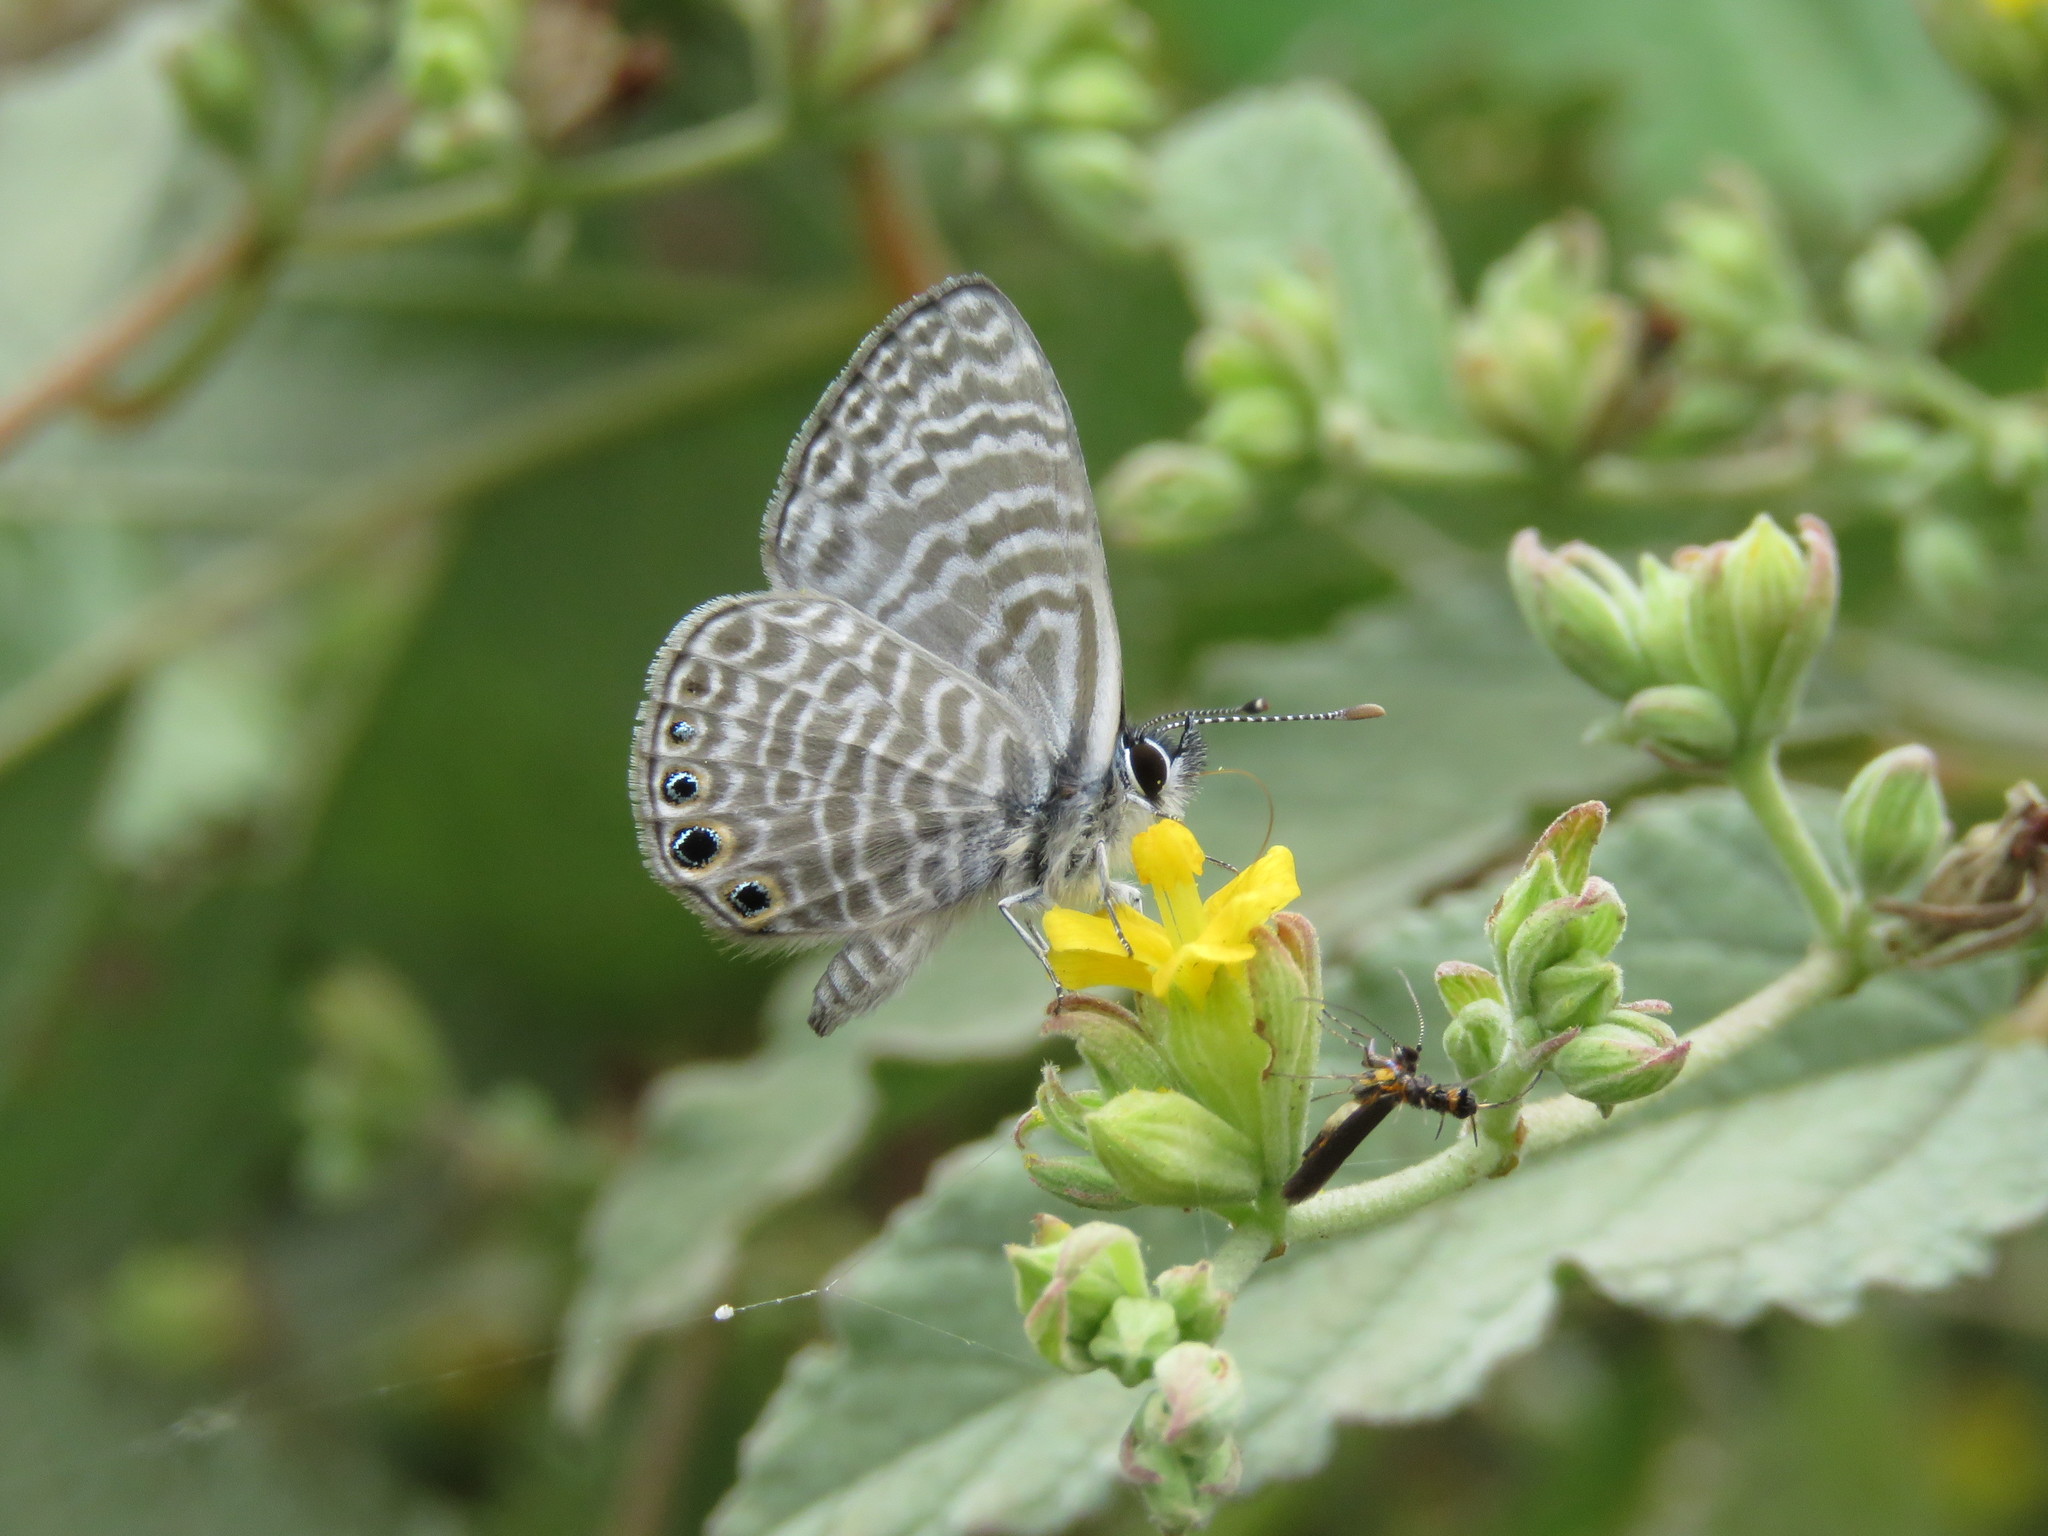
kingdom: Animalia
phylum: Arthropoda
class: Insecta
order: Lepidoptera
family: Lycaenidae
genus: Leptotes
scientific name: Leptotes
